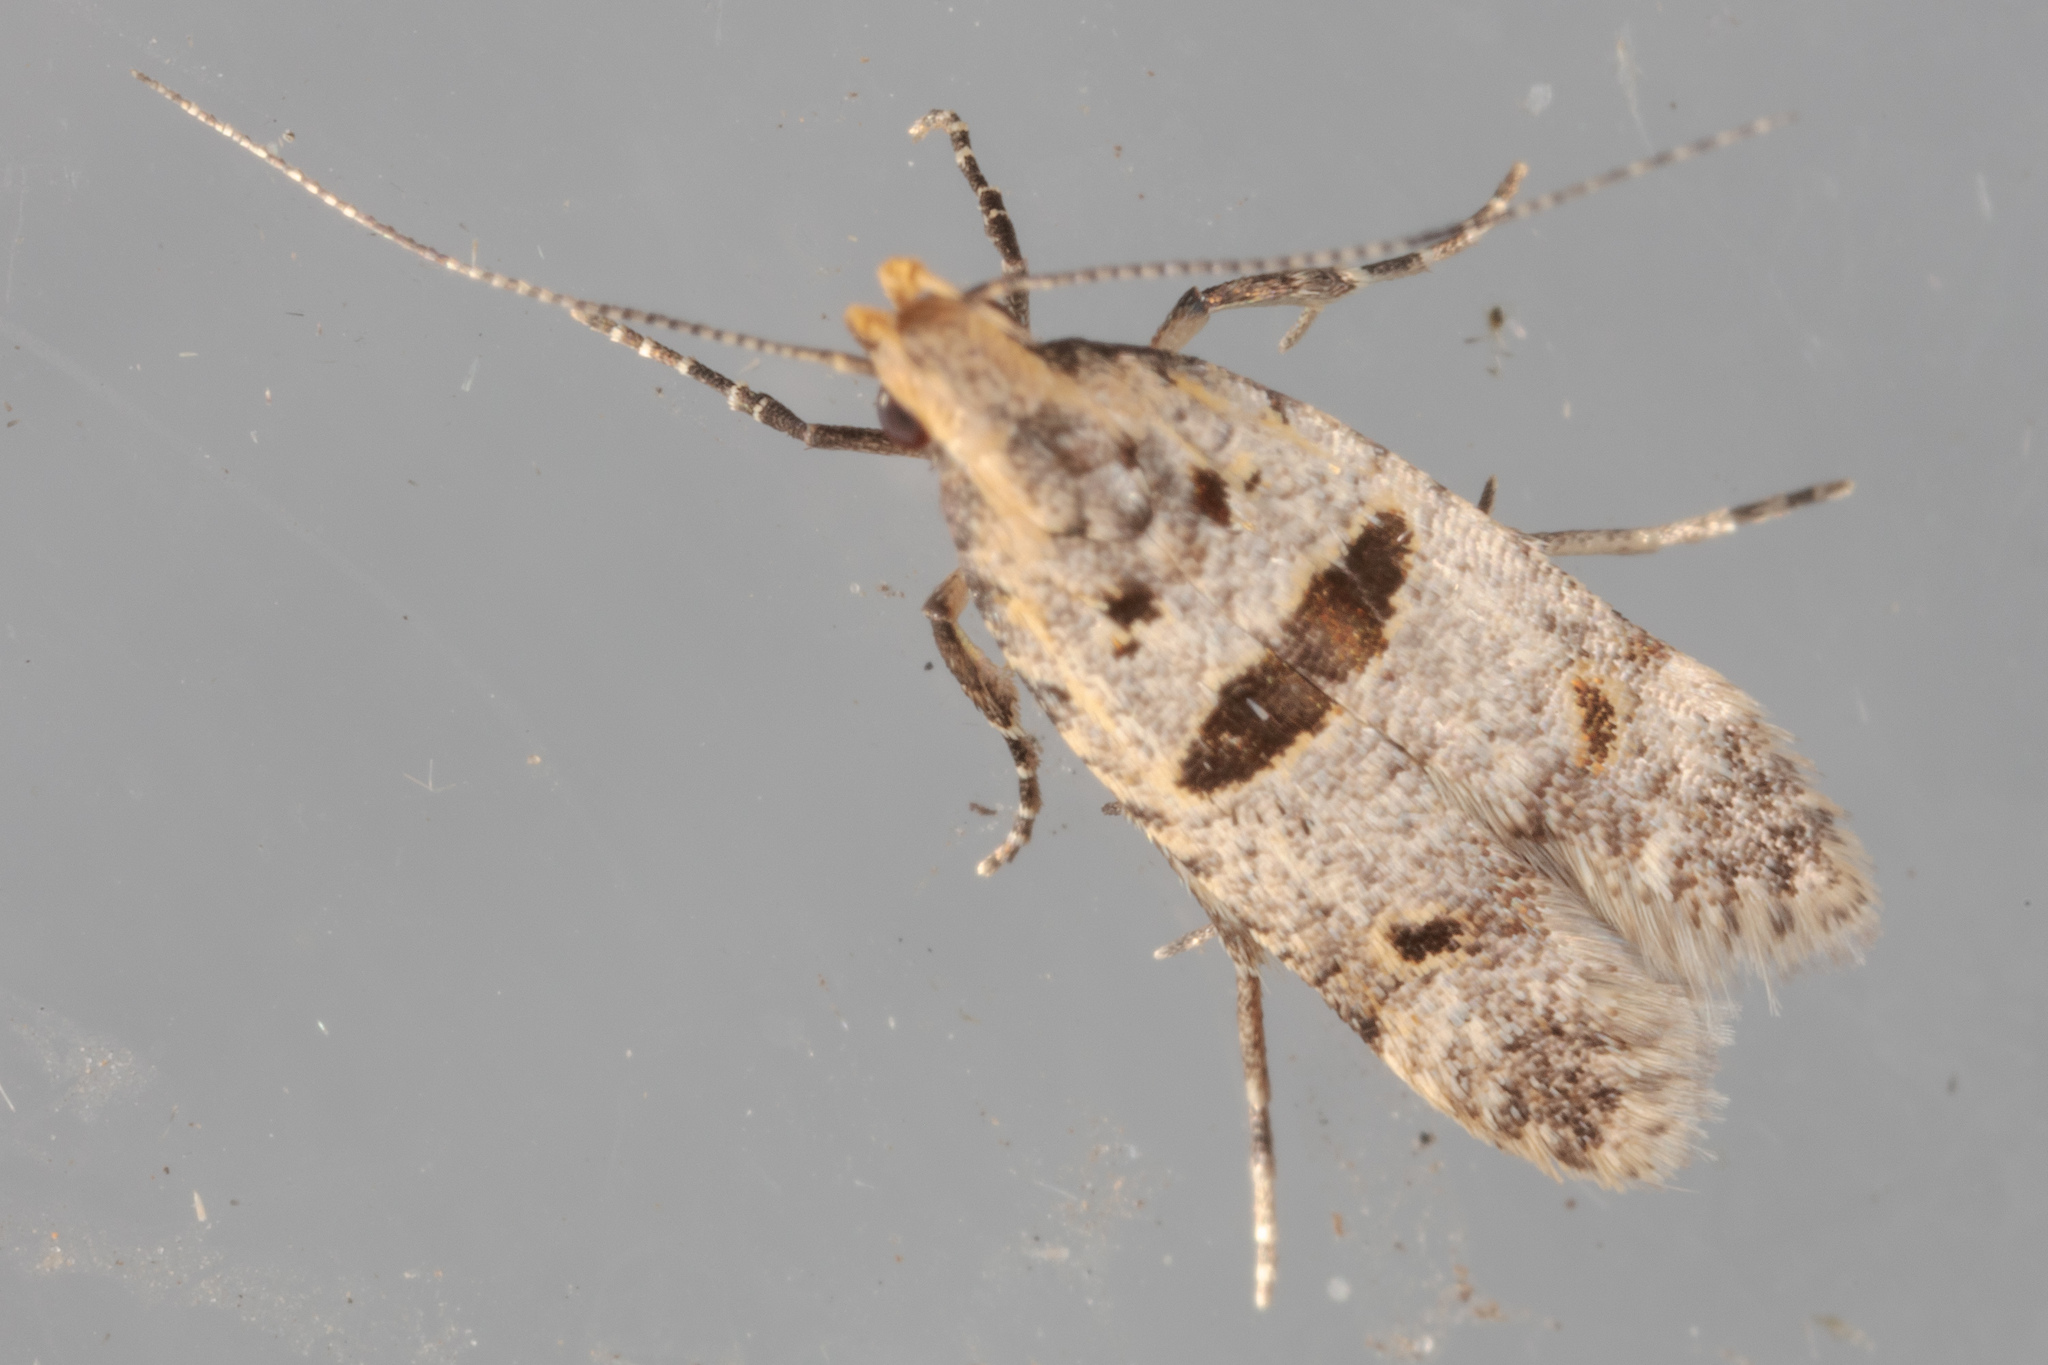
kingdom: Animalia
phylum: Arthropoda
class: Insecta
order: Lepidoptera
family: Gelechiidae
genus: Deltophora
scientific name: Deltophora glandiferella
